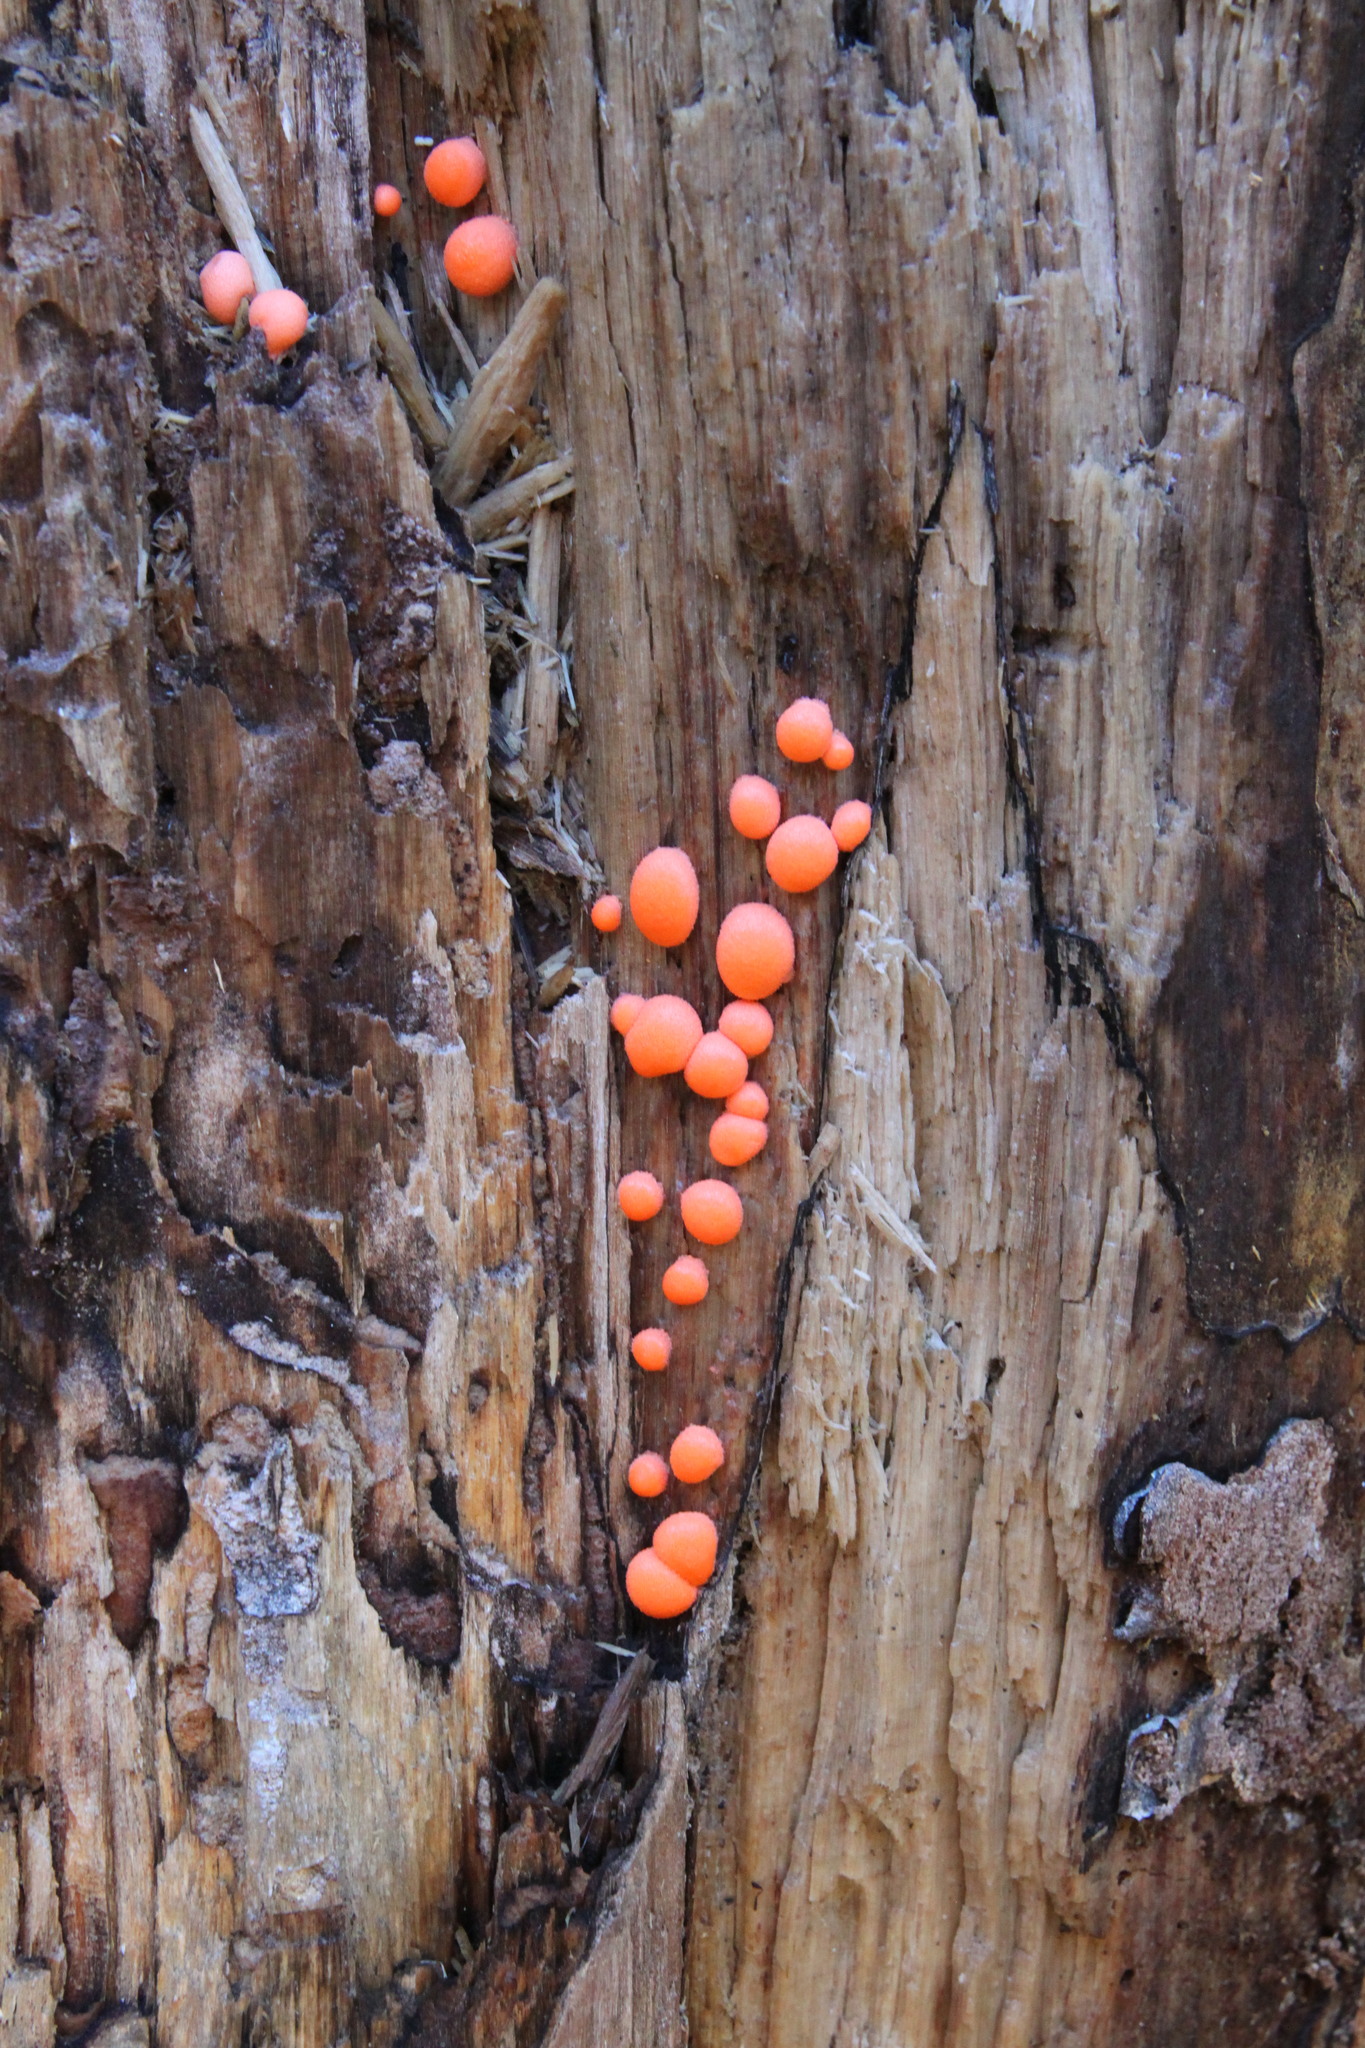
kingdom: Protozoa
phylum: Mycetozoa
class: Myxomycetes
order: Cribrariales
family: Tubiferaceae
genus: Lycogala
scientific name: Lycogala epidendrum
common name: Wolf's milk
